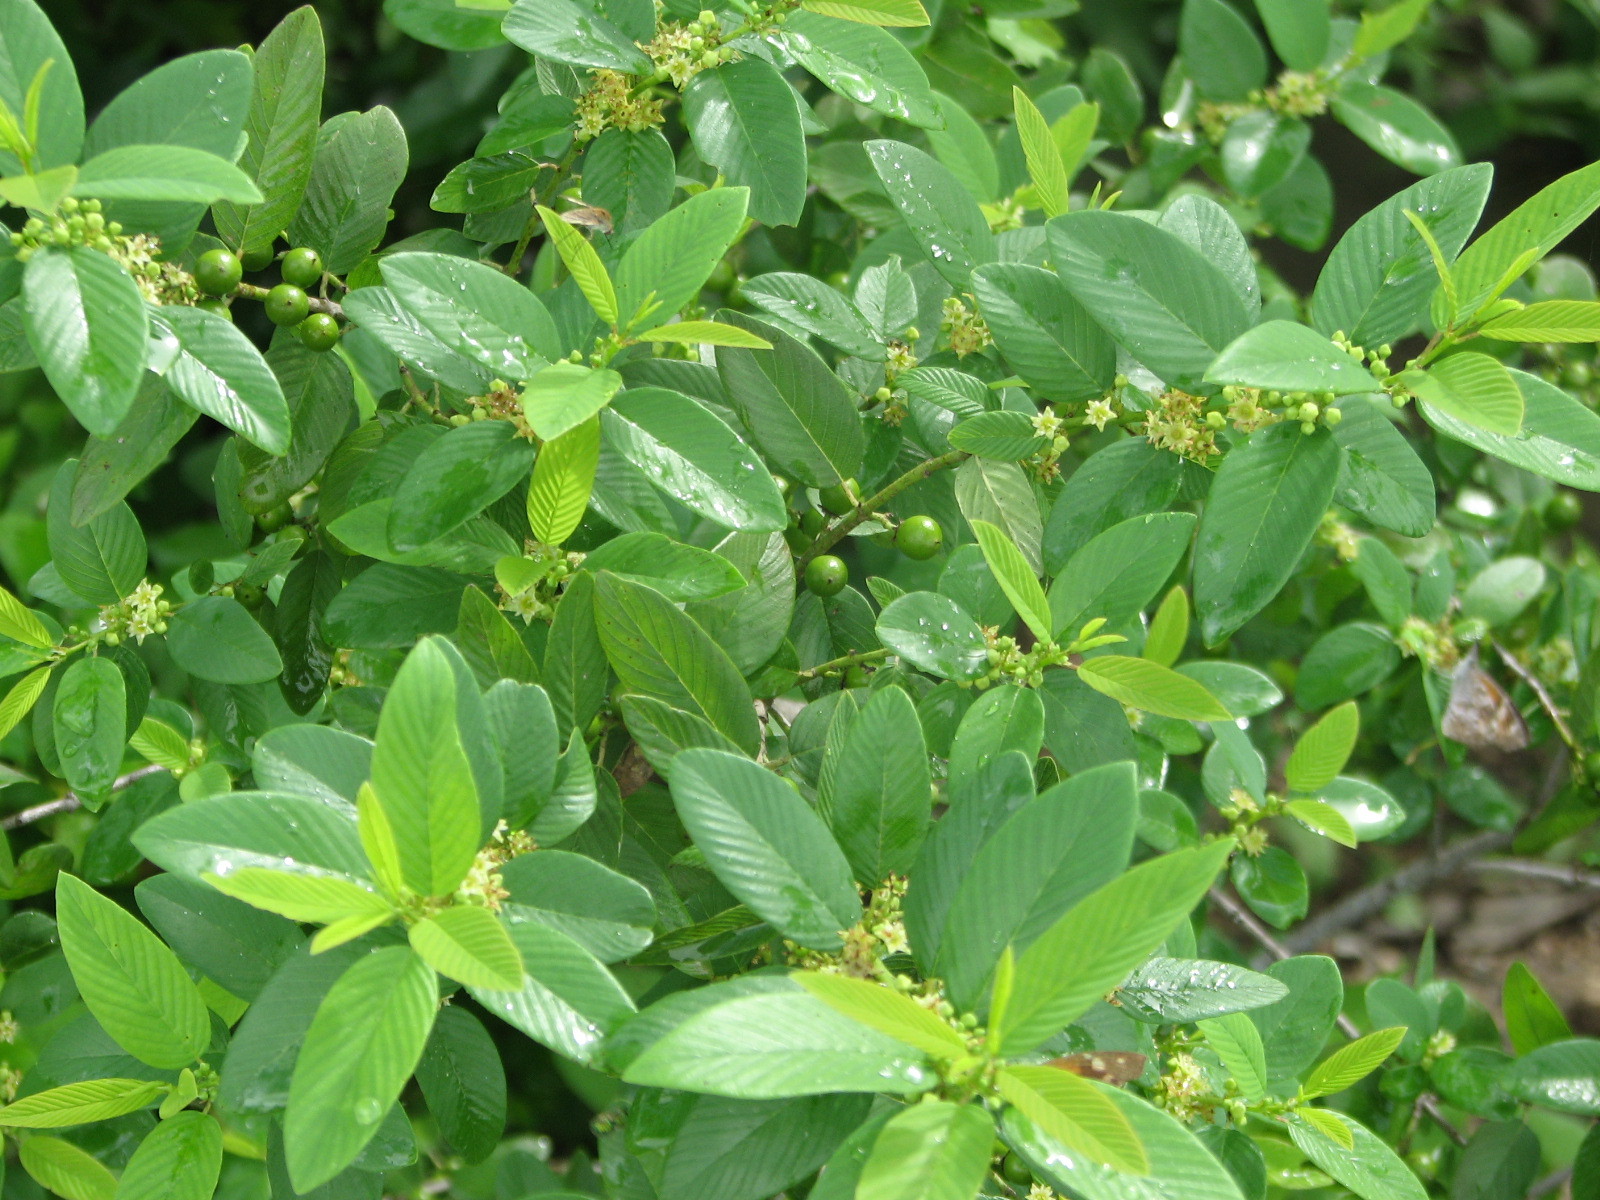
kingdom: Plantae
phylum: Tracheophyta
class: Magnoliopsida
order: Rosales
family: Rhamnaceae
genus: Karwinskia
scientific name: Karwinskia humboldtiana
